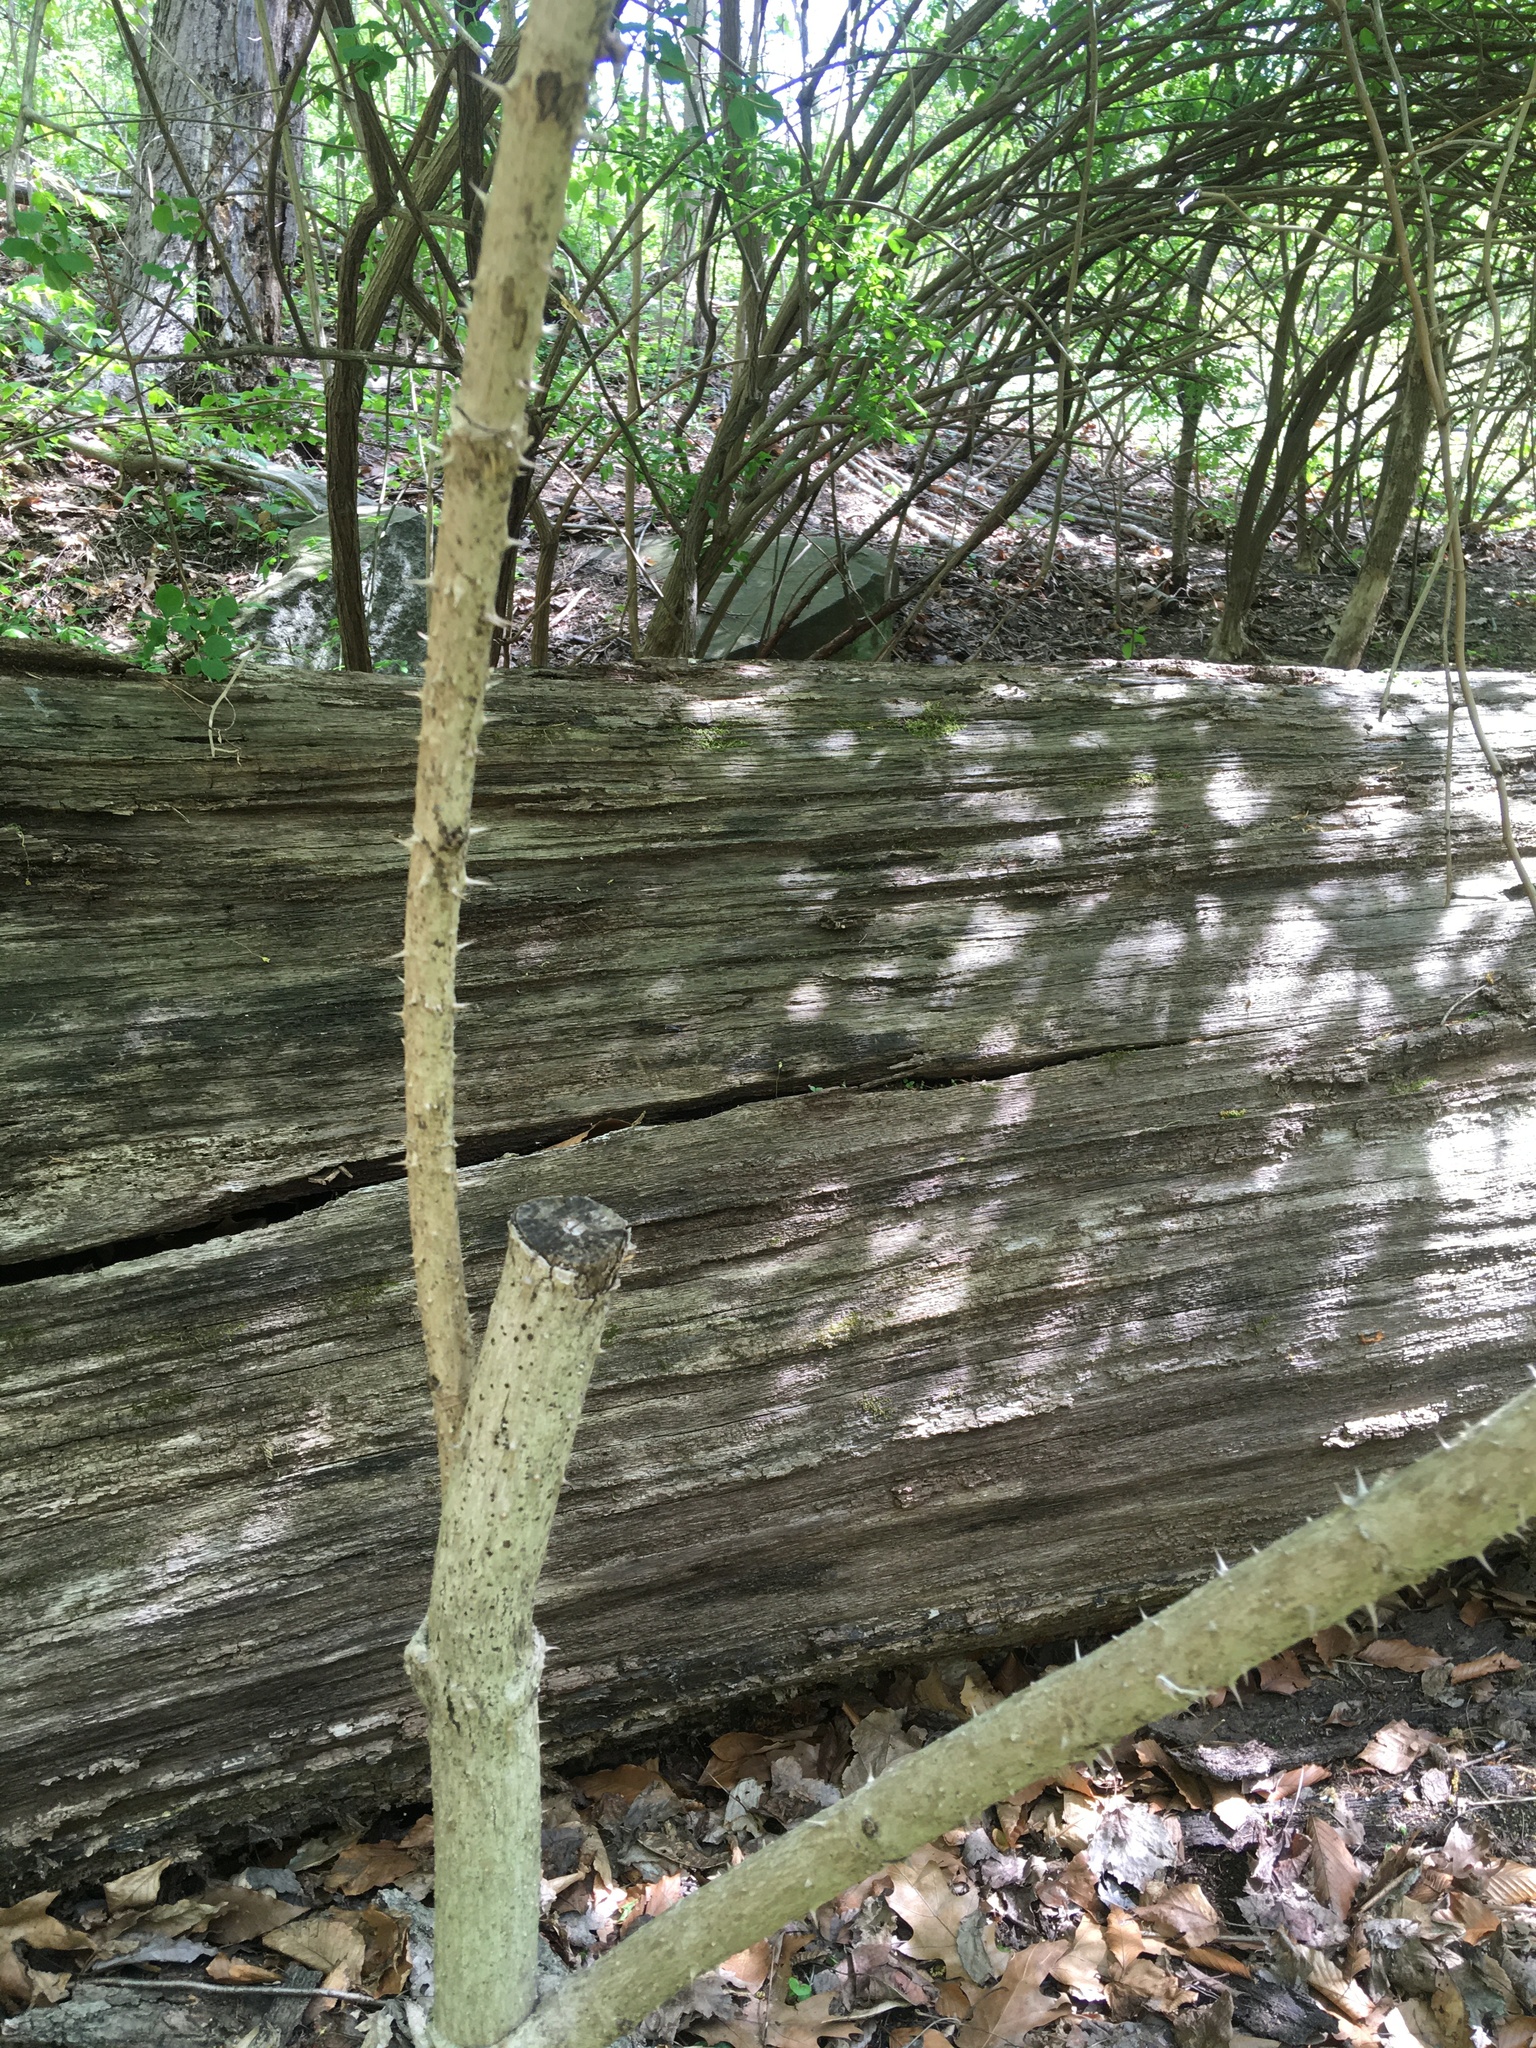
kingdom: Plantae
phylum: Tracheophyta
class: Magnoliopsida
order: Apiales
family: Araliaceae
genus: Aralia
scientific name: Aralia elata
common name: Japanese angelica-tree
